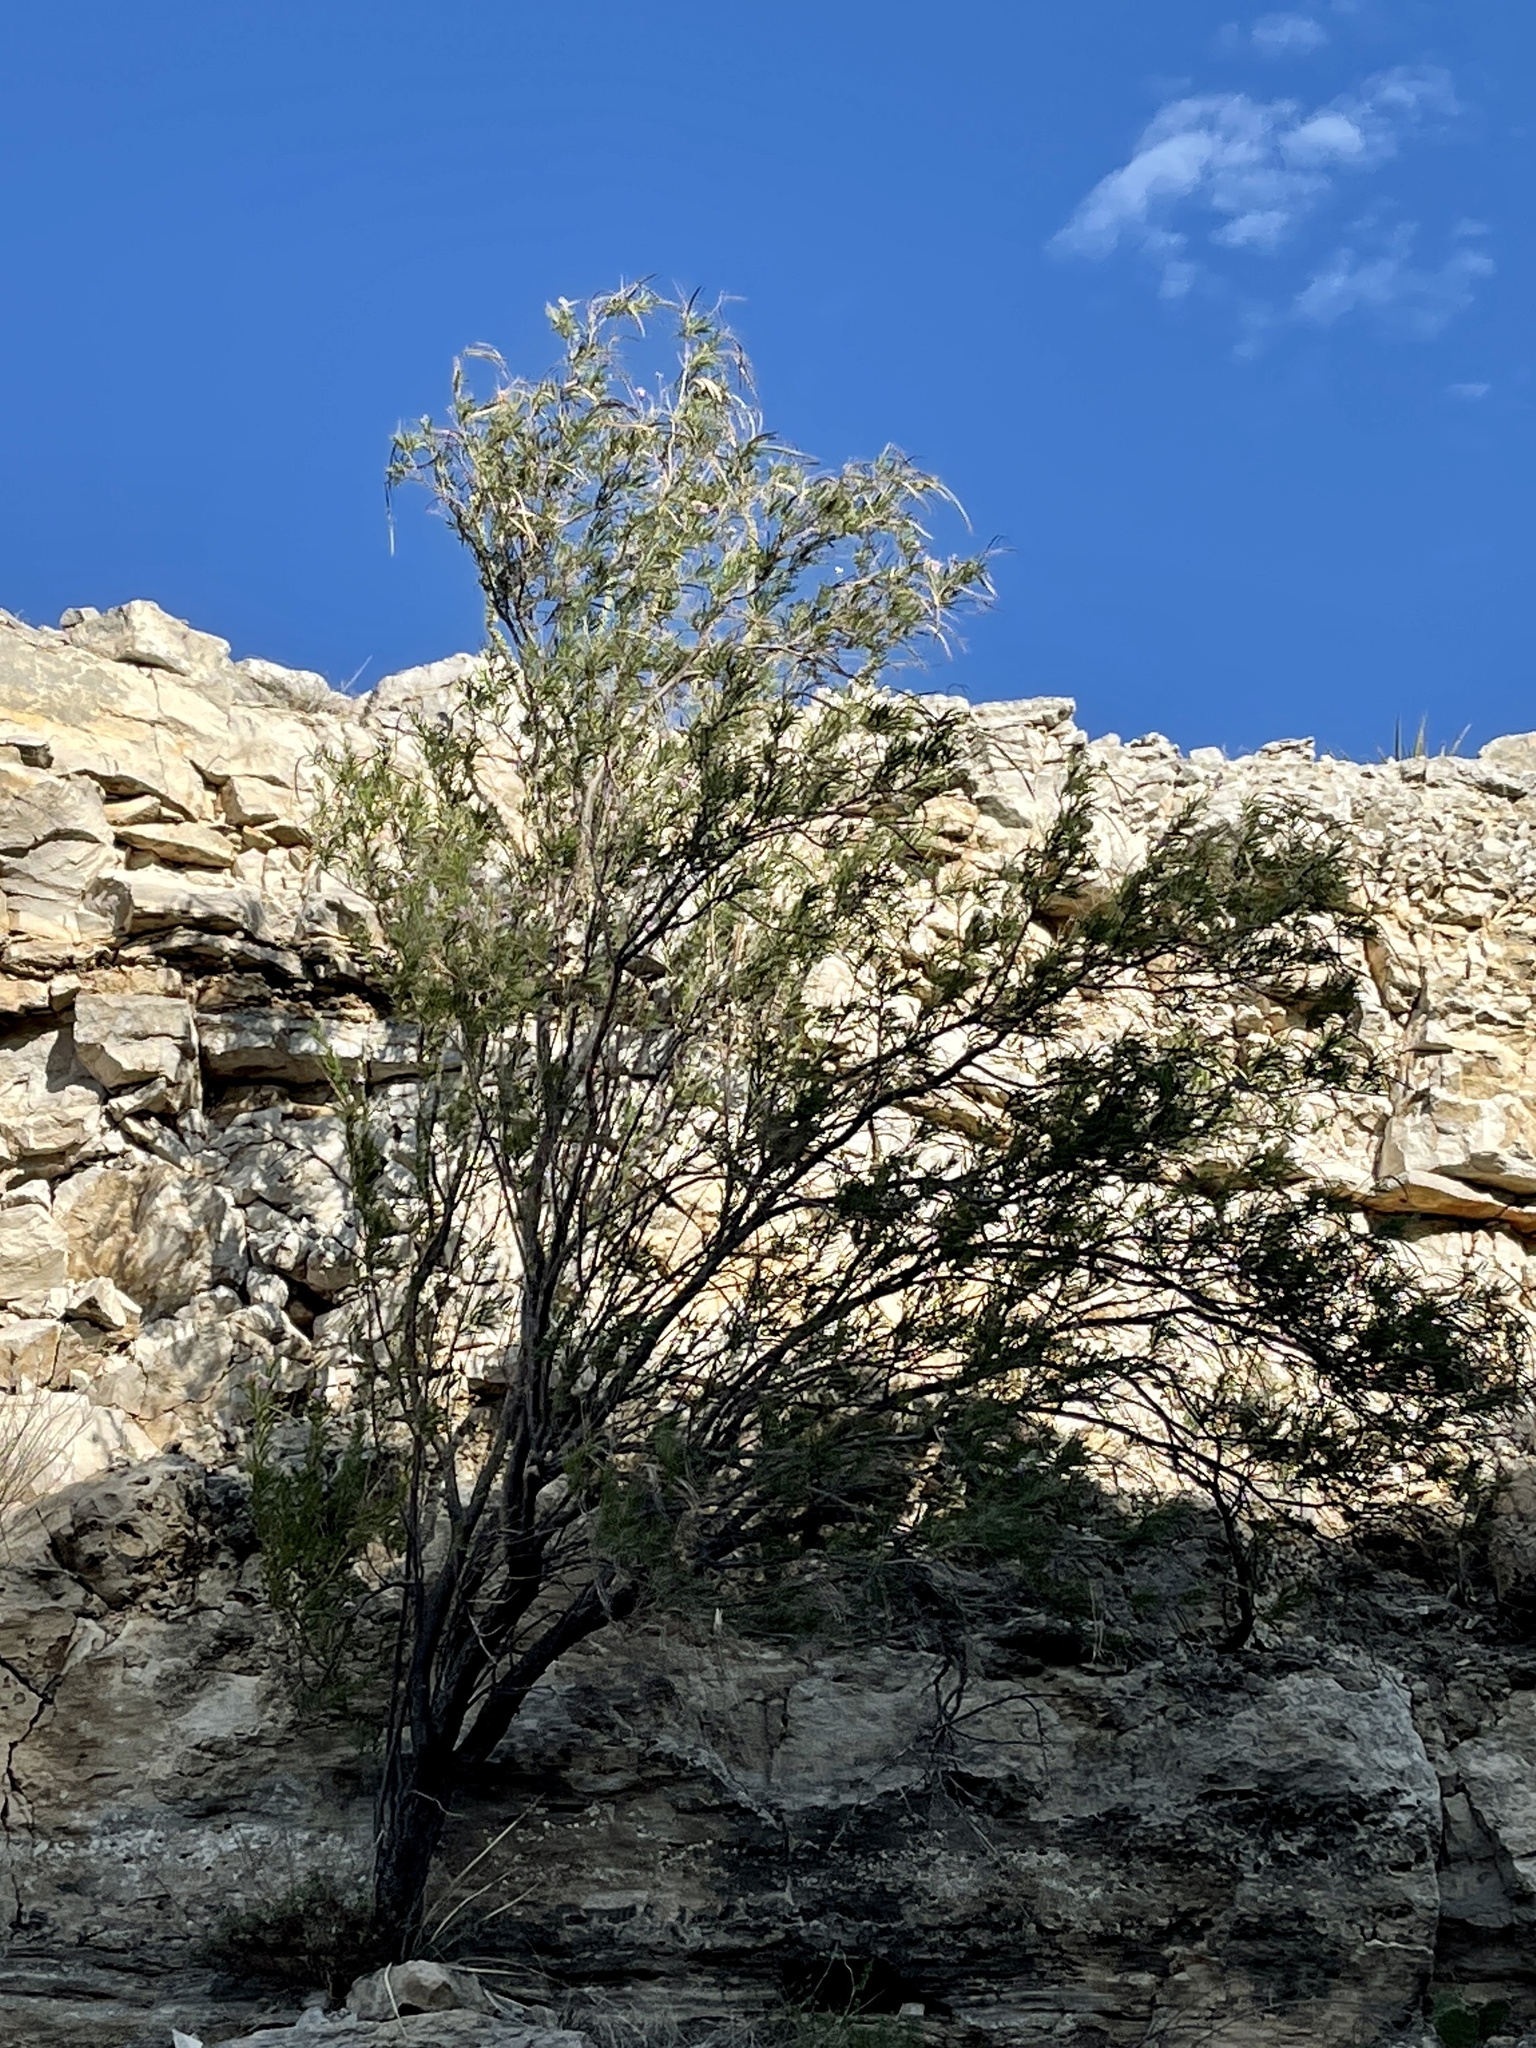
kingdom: Plantae
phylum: Tracheophyta
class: Magnoliopsida
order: Lamiales
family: Bignoniaceae
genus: Chilopsis
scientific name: Chilopsis linearis
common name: Desert-willow
